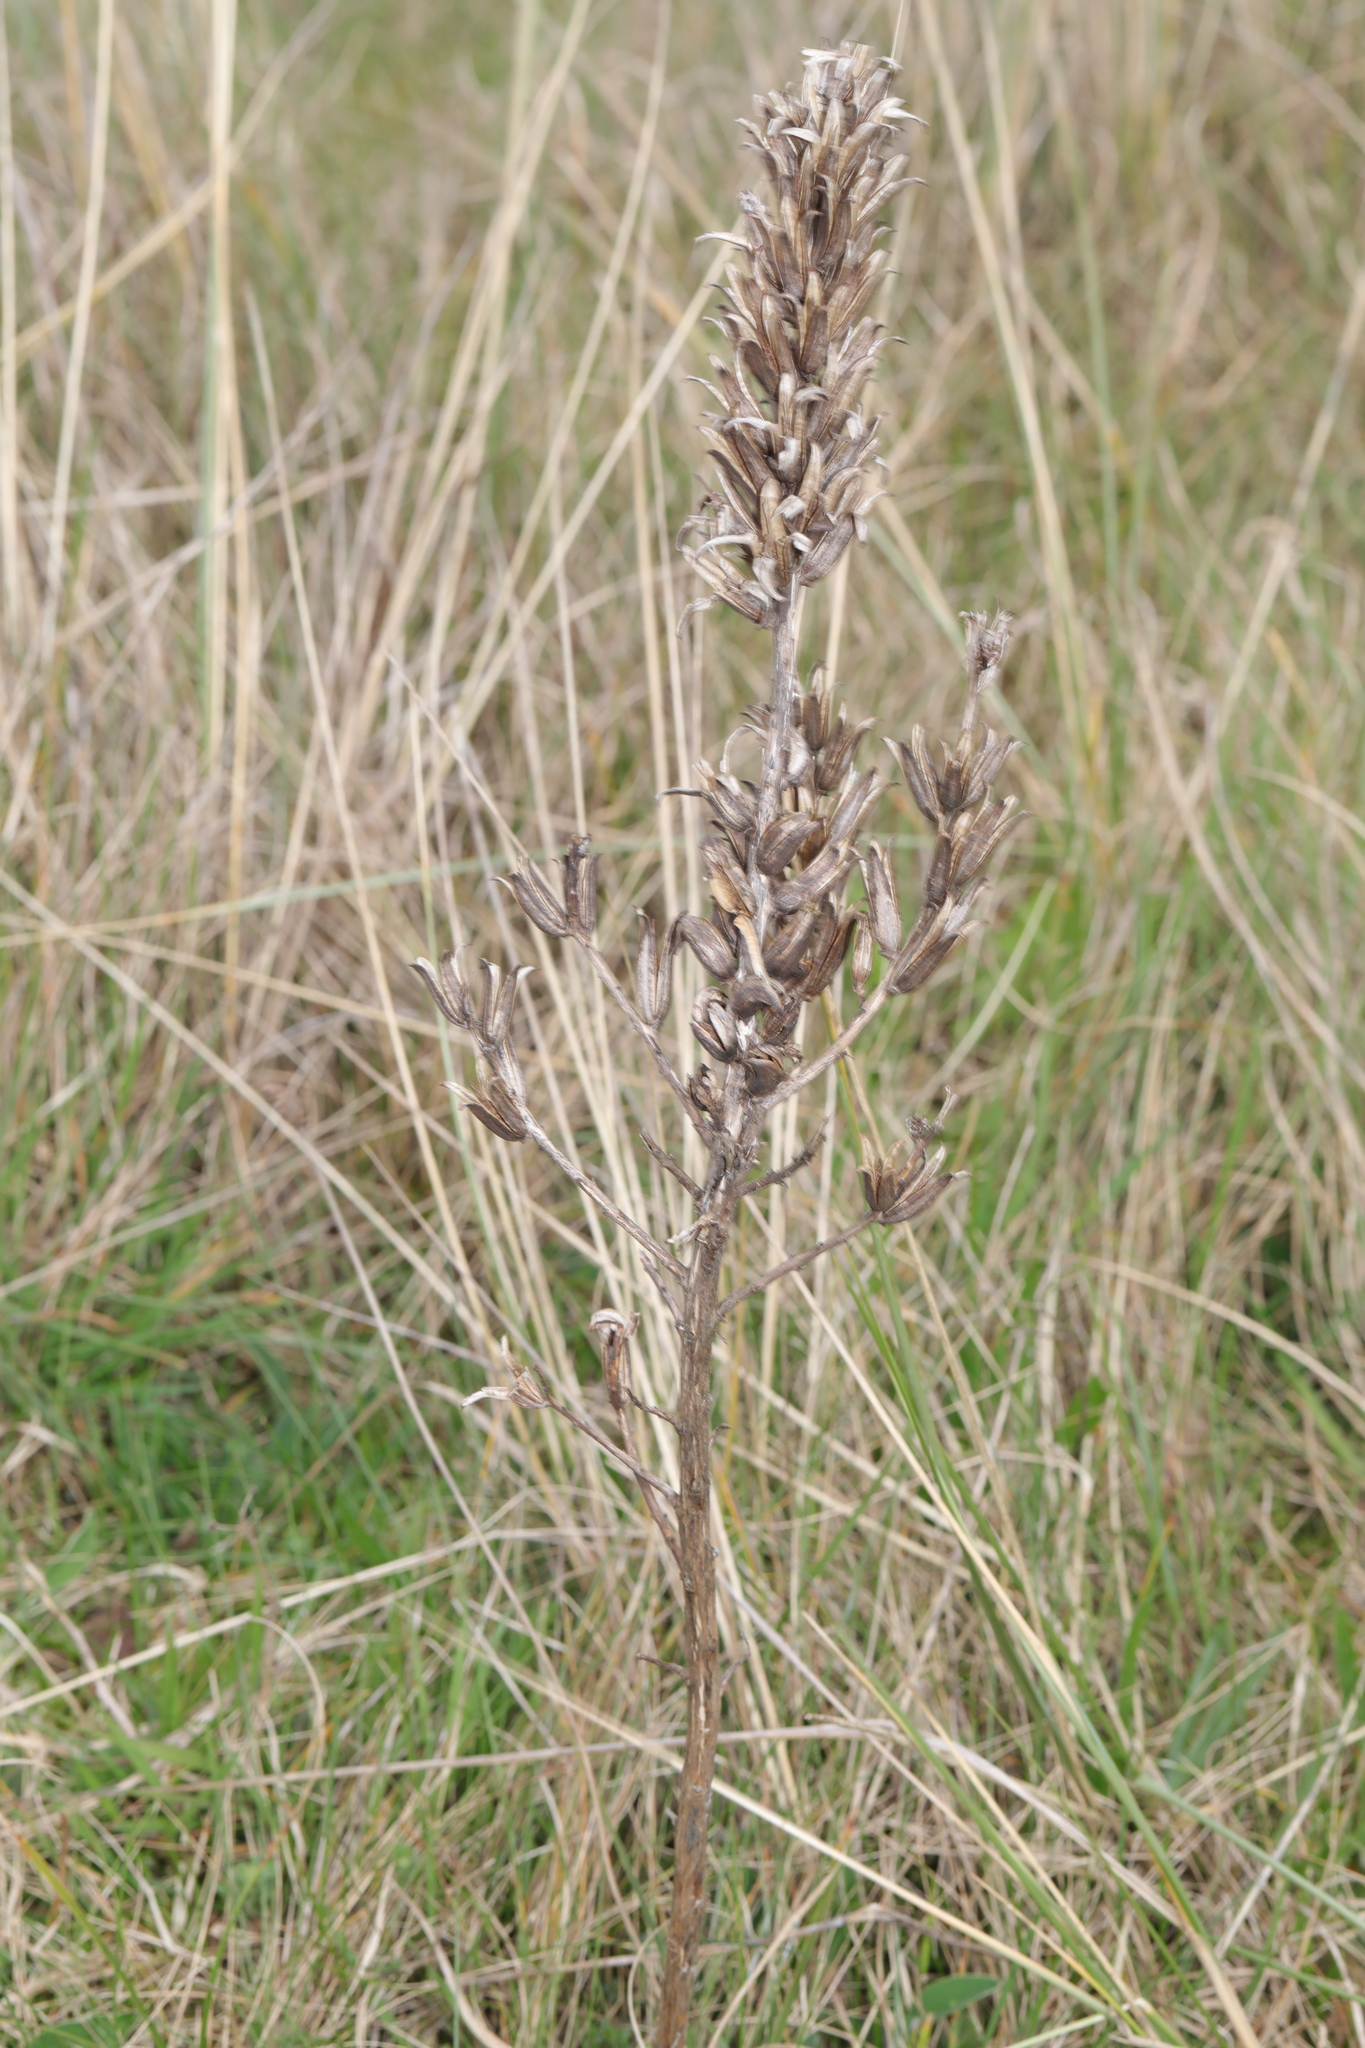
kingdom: Plantae
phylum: Tracheophyta
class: Magnoliopsida
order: Myrtales
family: Onagraceae
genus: Oenothera
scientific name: Oenothera
